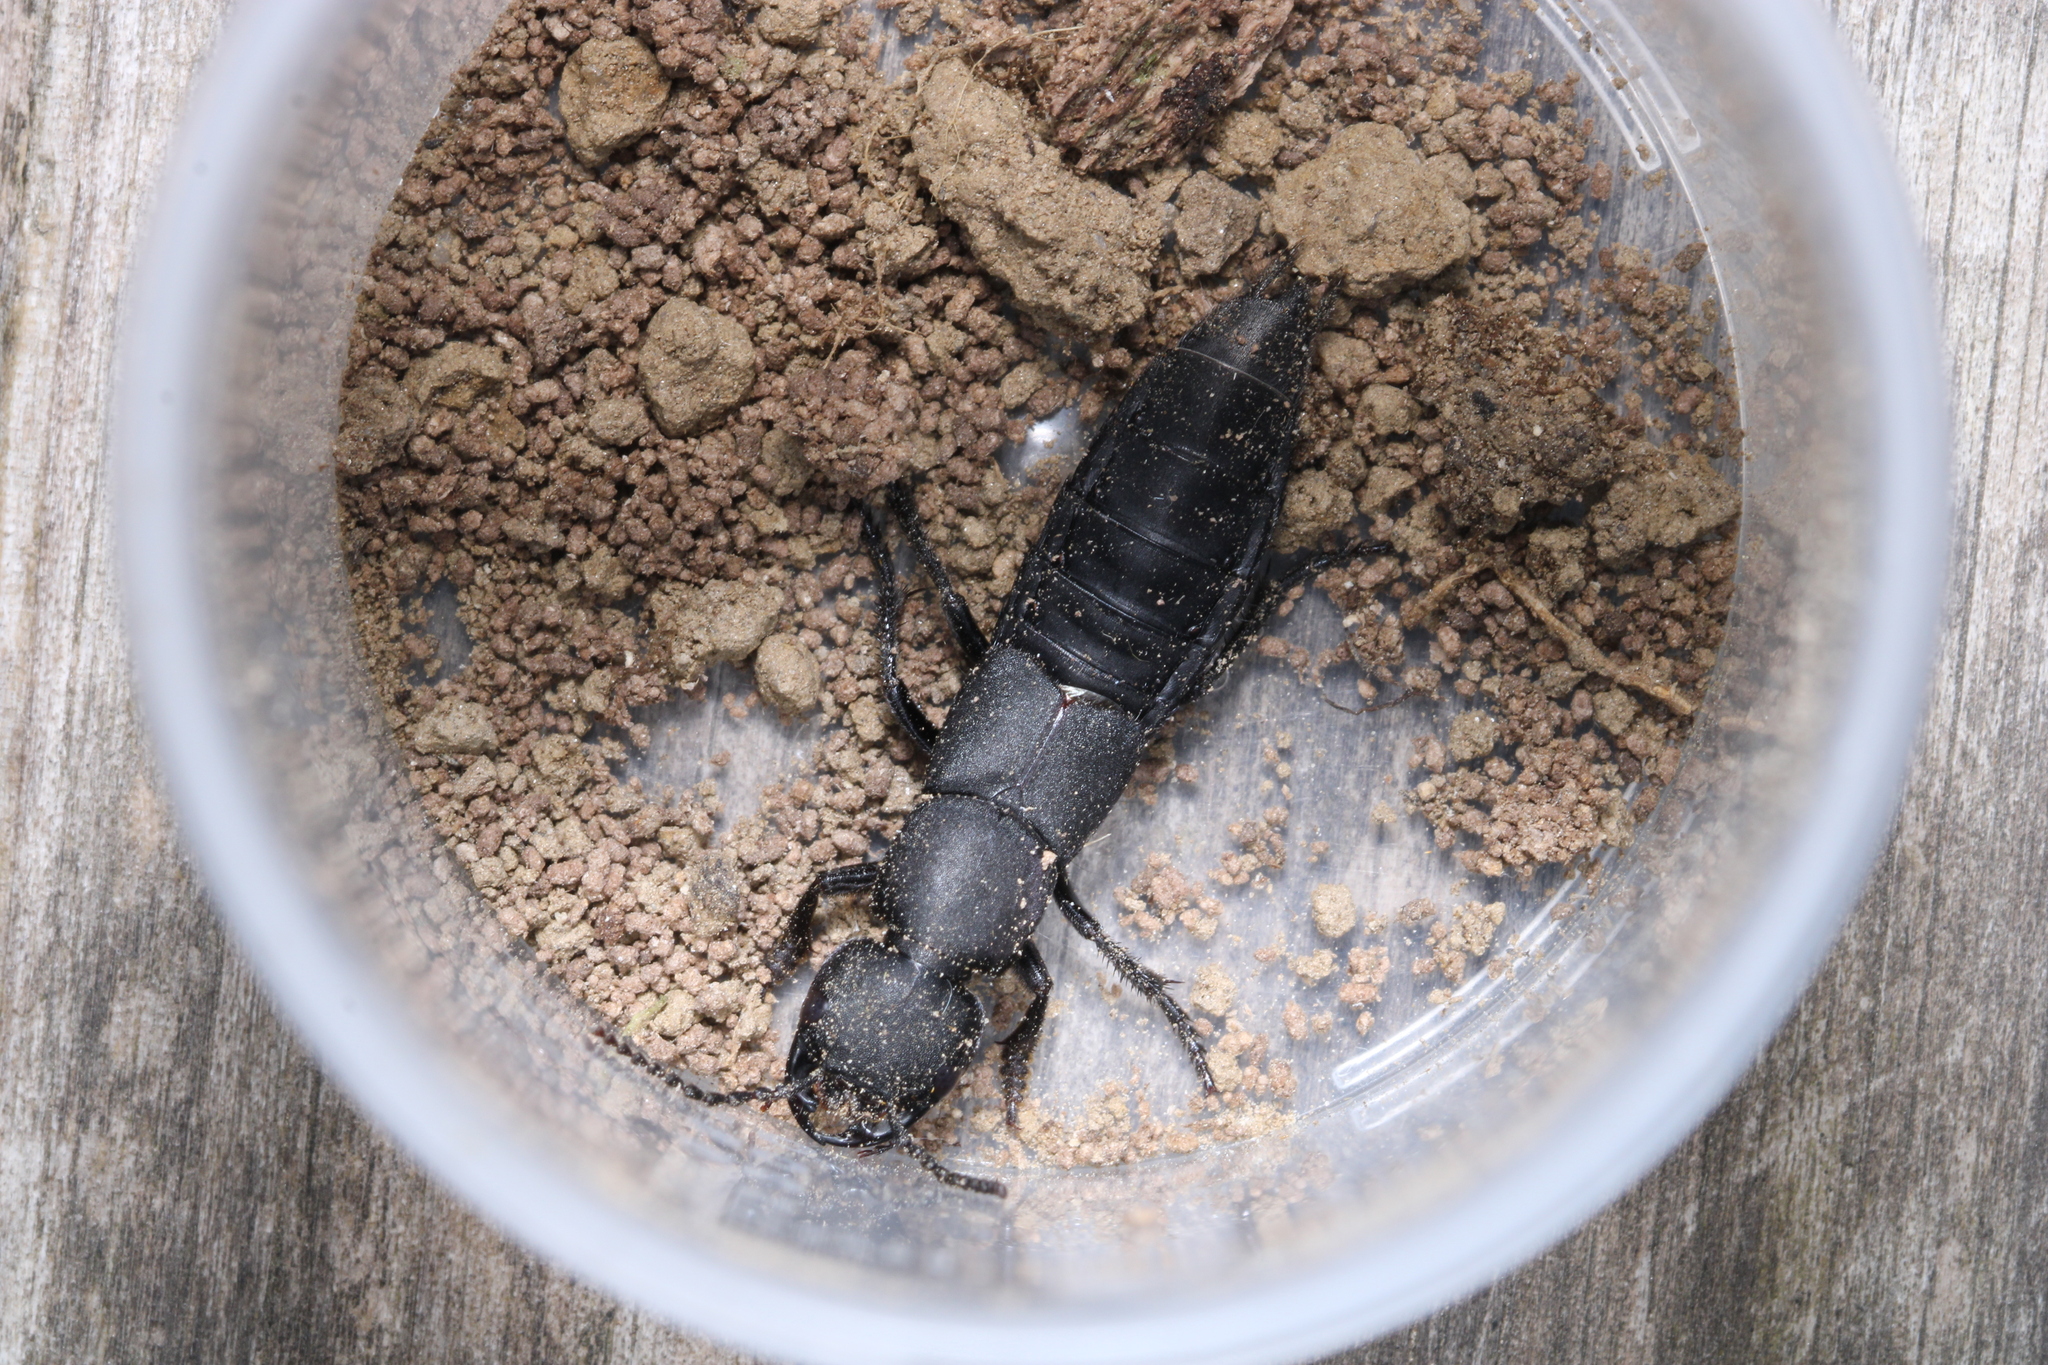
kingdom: Animalia
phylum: Arthropoda
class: Insecta
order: Coleoptera
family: Staphylinidae
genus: Ocypus
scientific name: Ocypus olens
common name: Devil's coach-horse
